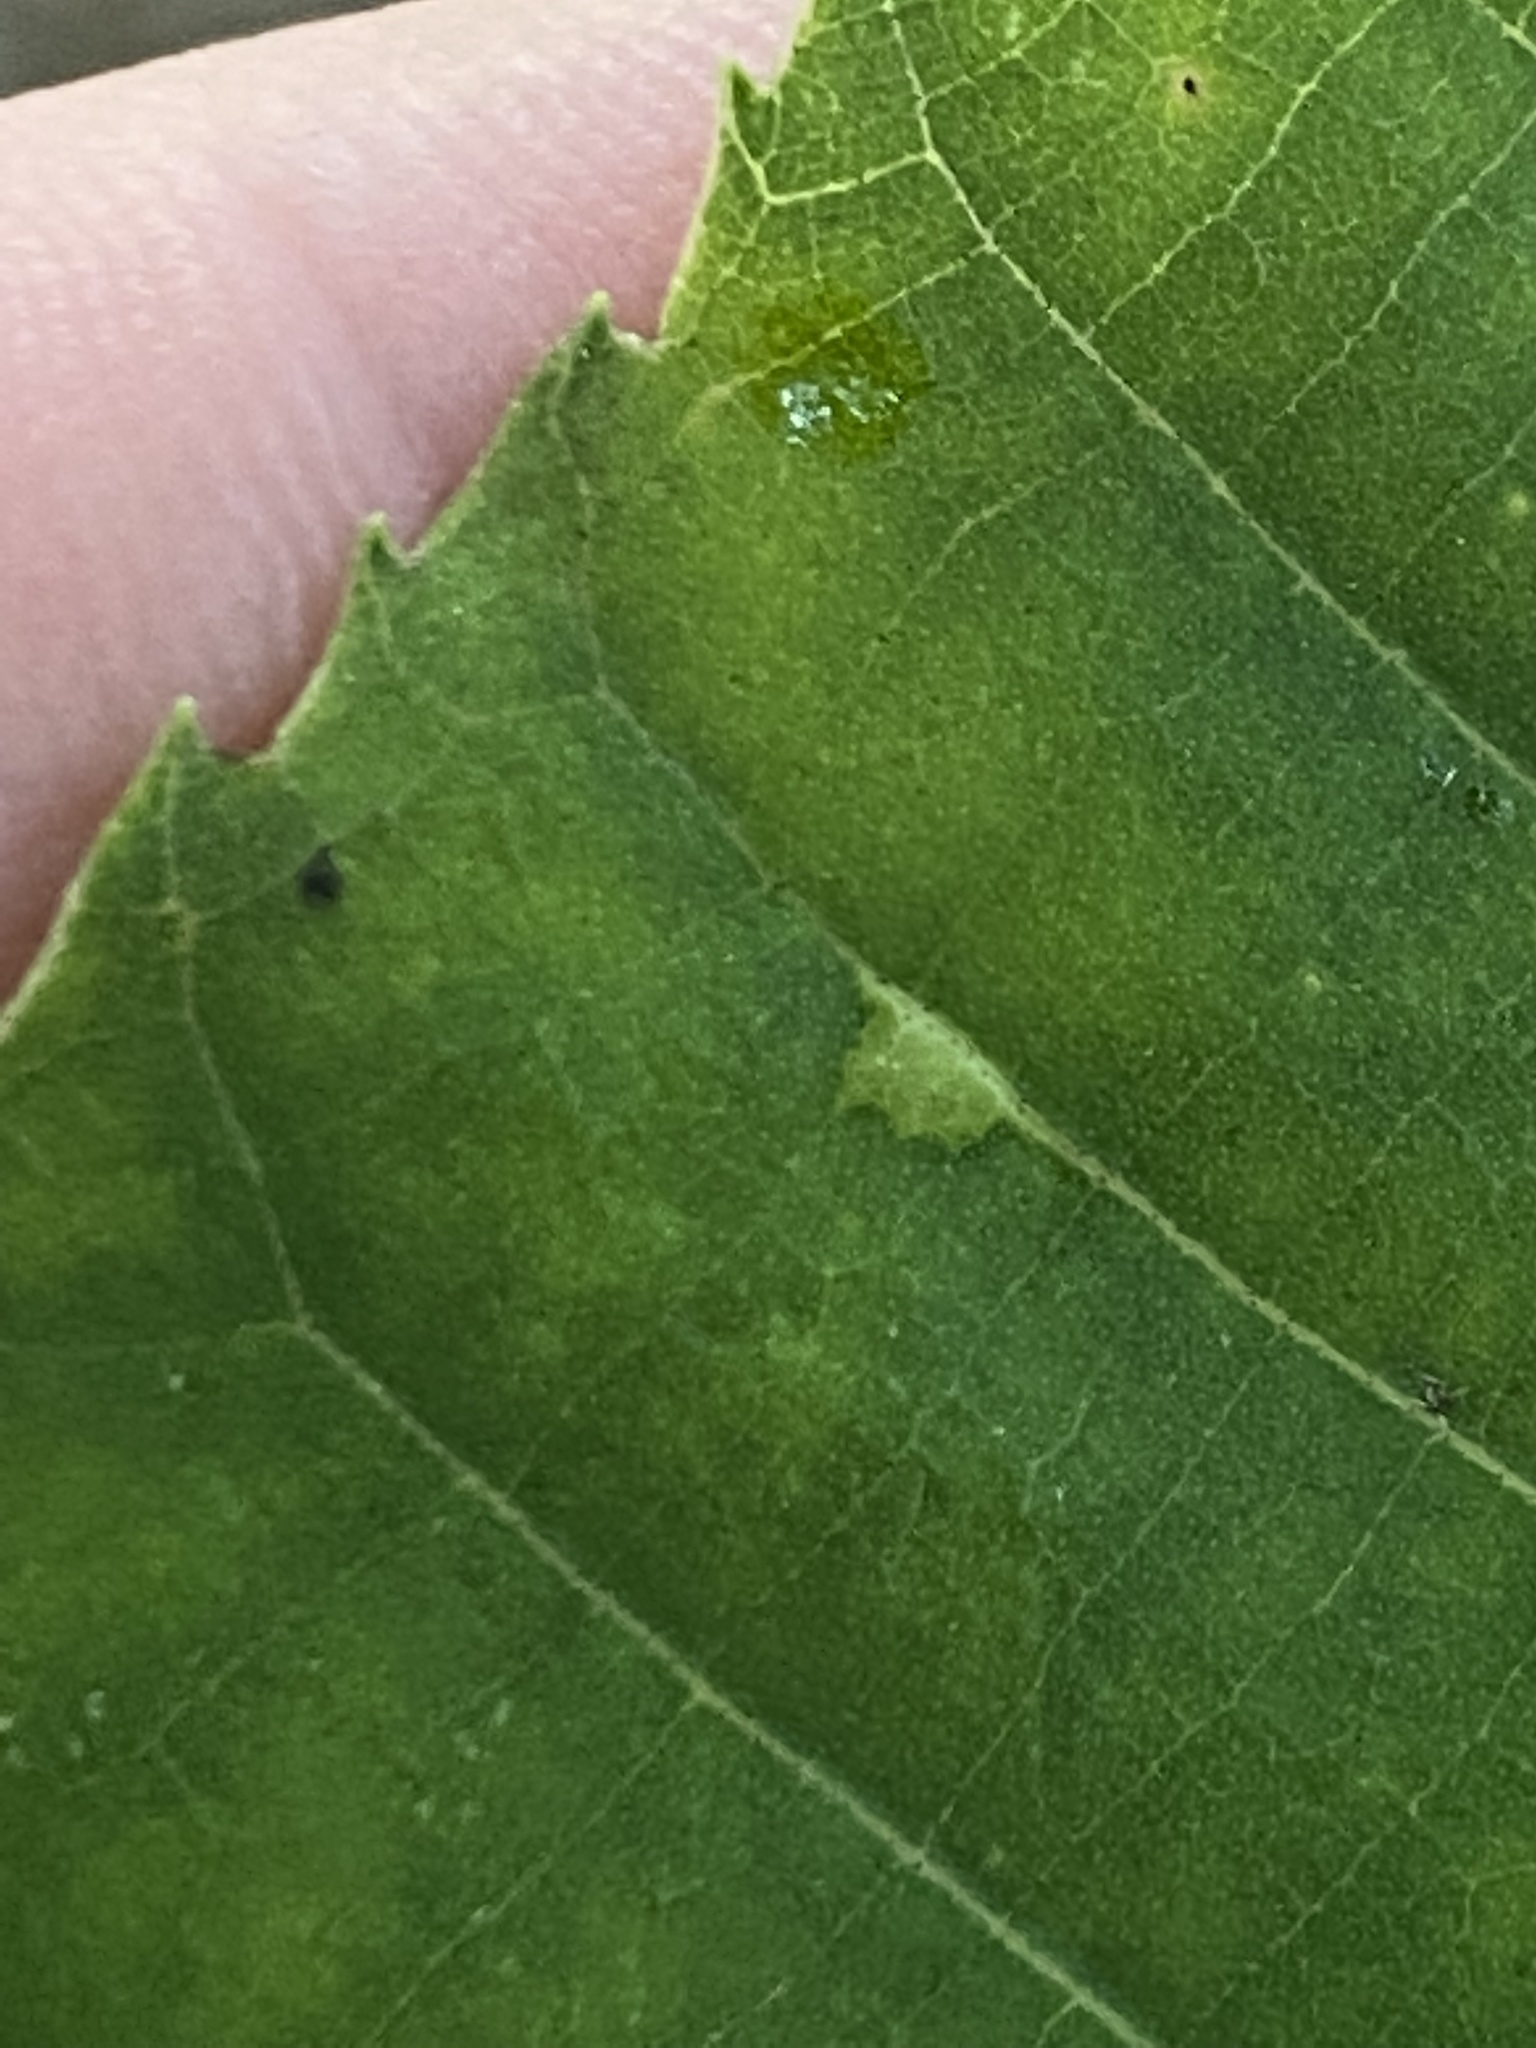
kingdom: Animalia
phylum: Arthropoda
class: Insecta
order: Diptera
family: Cecidomyiidae
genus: Caryomyia
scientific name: Caryomyia striolata
